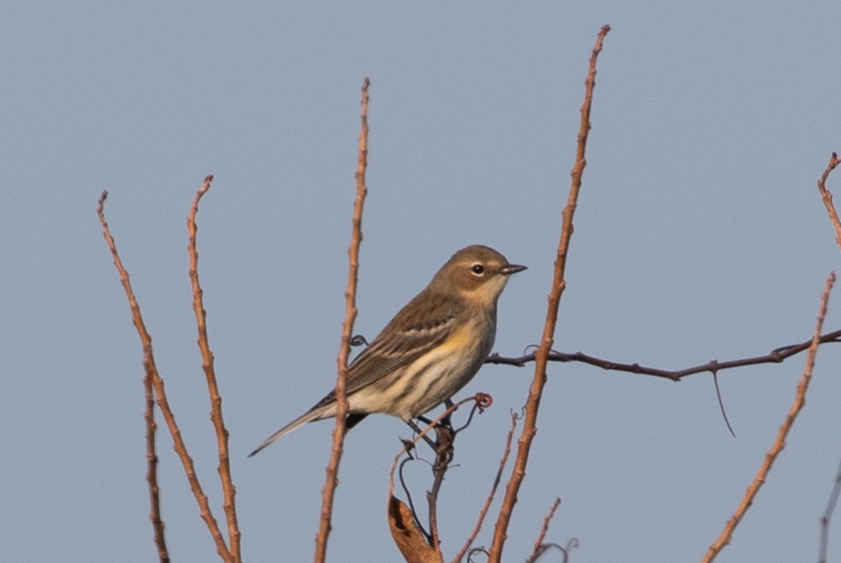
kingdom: Animalia
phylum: Chordata
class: Aves
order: Passeriformes
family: Parulidae
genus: Setophaga
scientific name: Setophaga coronata
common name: Myrtle warbler
